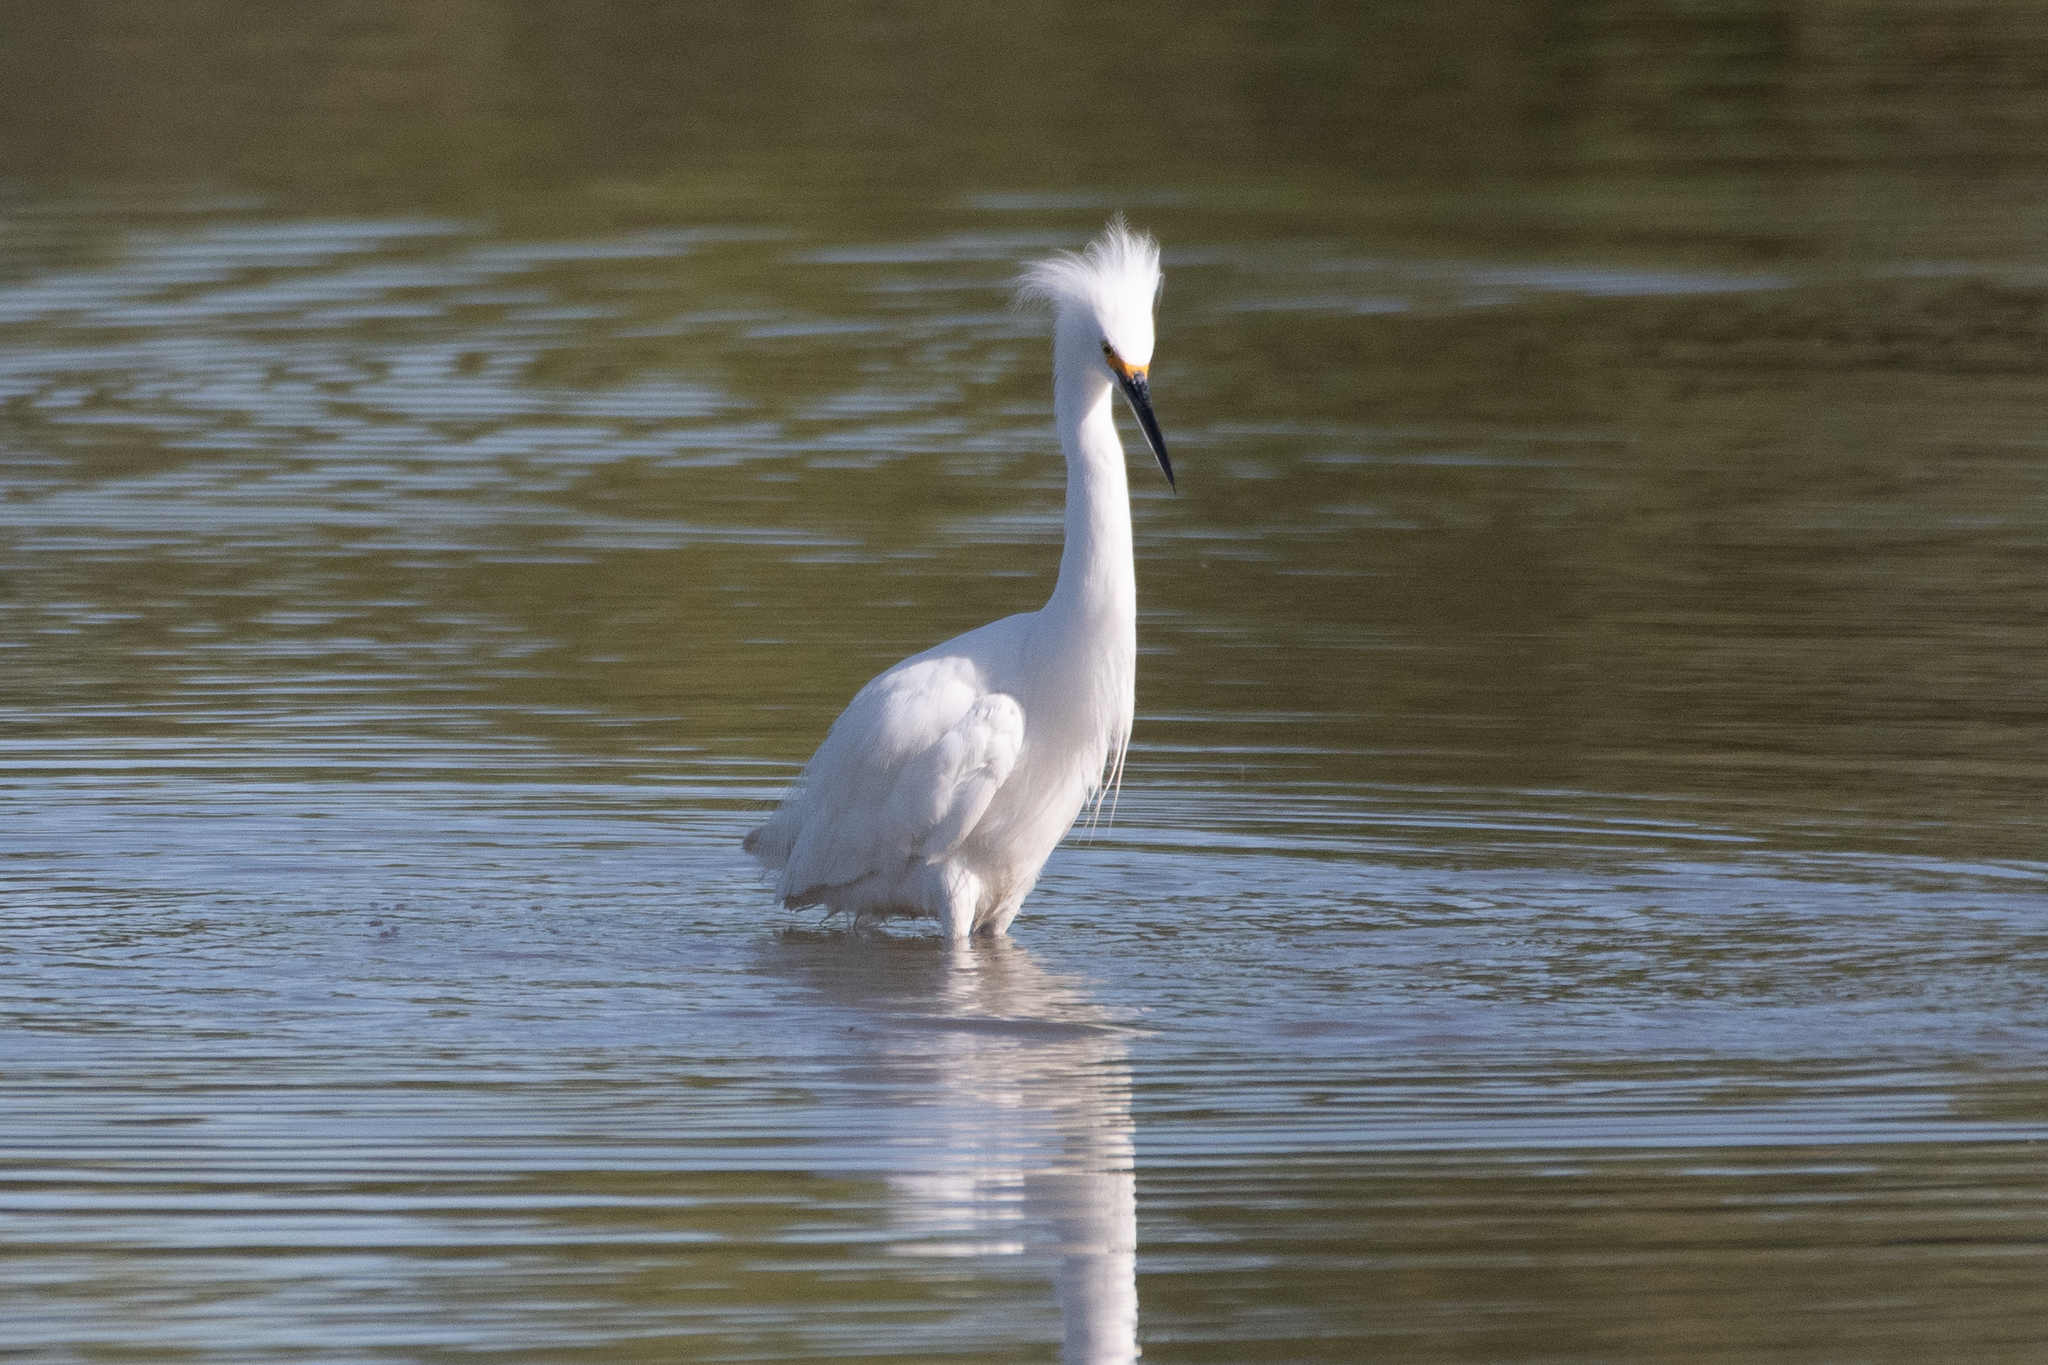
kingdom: Animalia
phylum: Chordata
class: Aves
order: Pelecaniformes
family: Ardeidae
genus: Egretta
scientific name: Egretta thula
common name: Snowy egret
